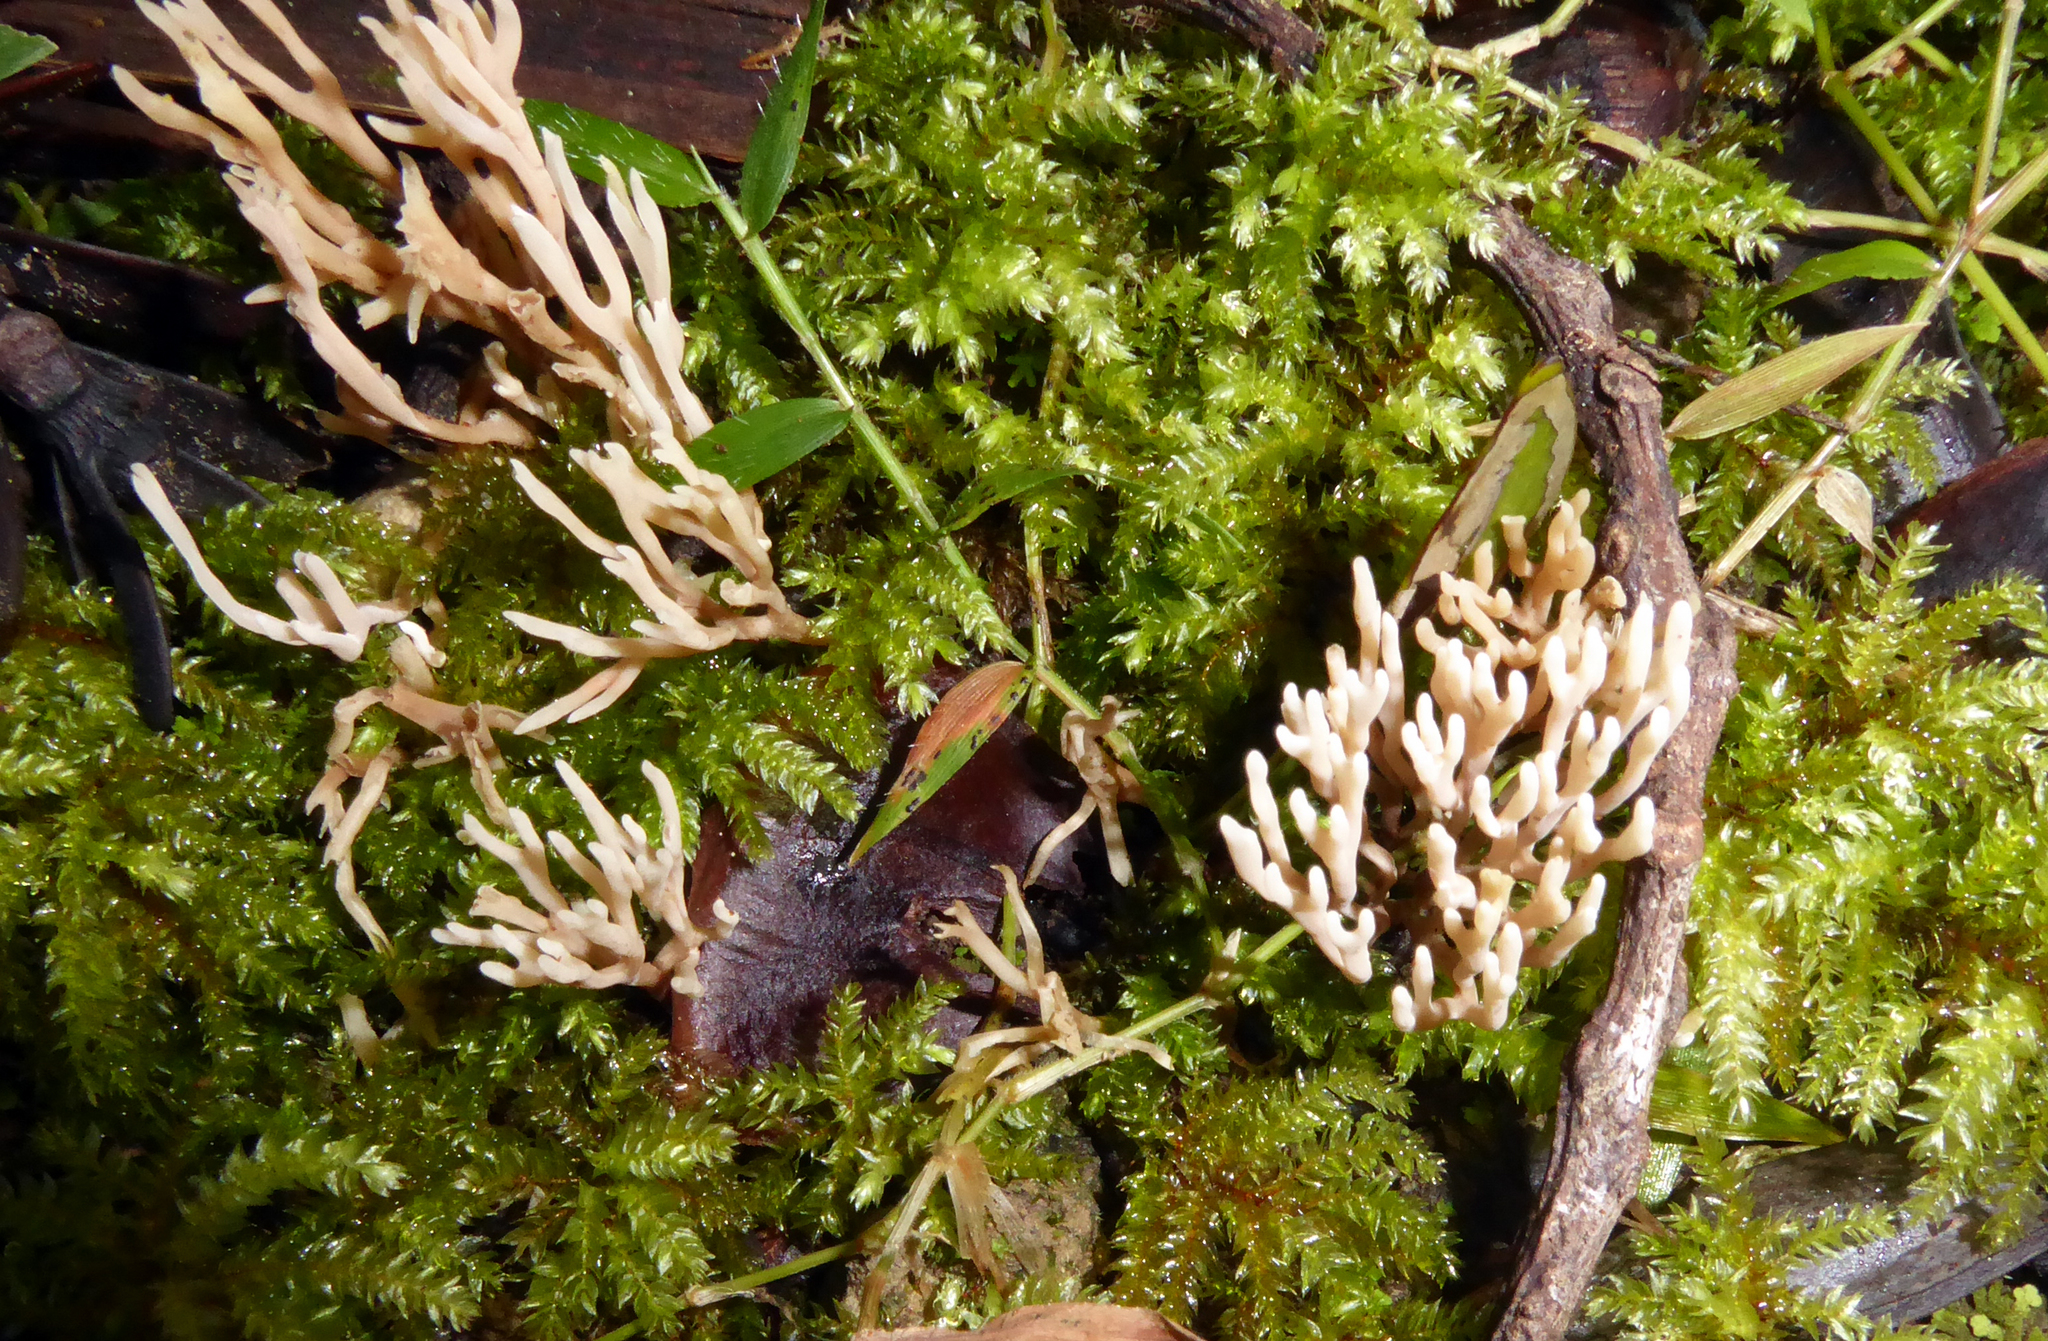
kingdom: Fungi
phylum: Basidiomycota
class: Agaricomycetes
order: Agaricales
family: Clavariaceae
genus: Ramariopsis
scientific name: Ramariopsis longipes
